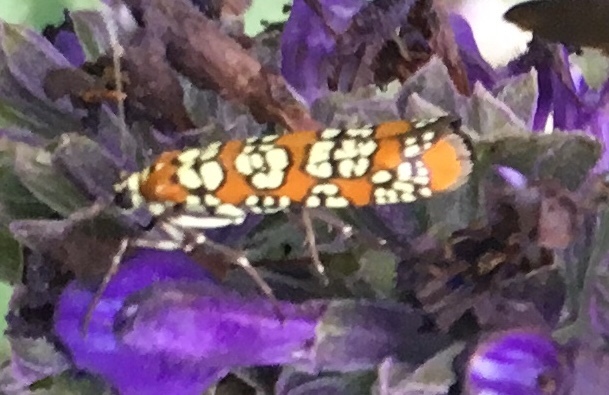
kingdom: Animalia
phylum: Arthropoda
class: Insecta
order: Lepidoptera
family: Attevidae
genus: Atteva
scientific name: Atteva punctella
